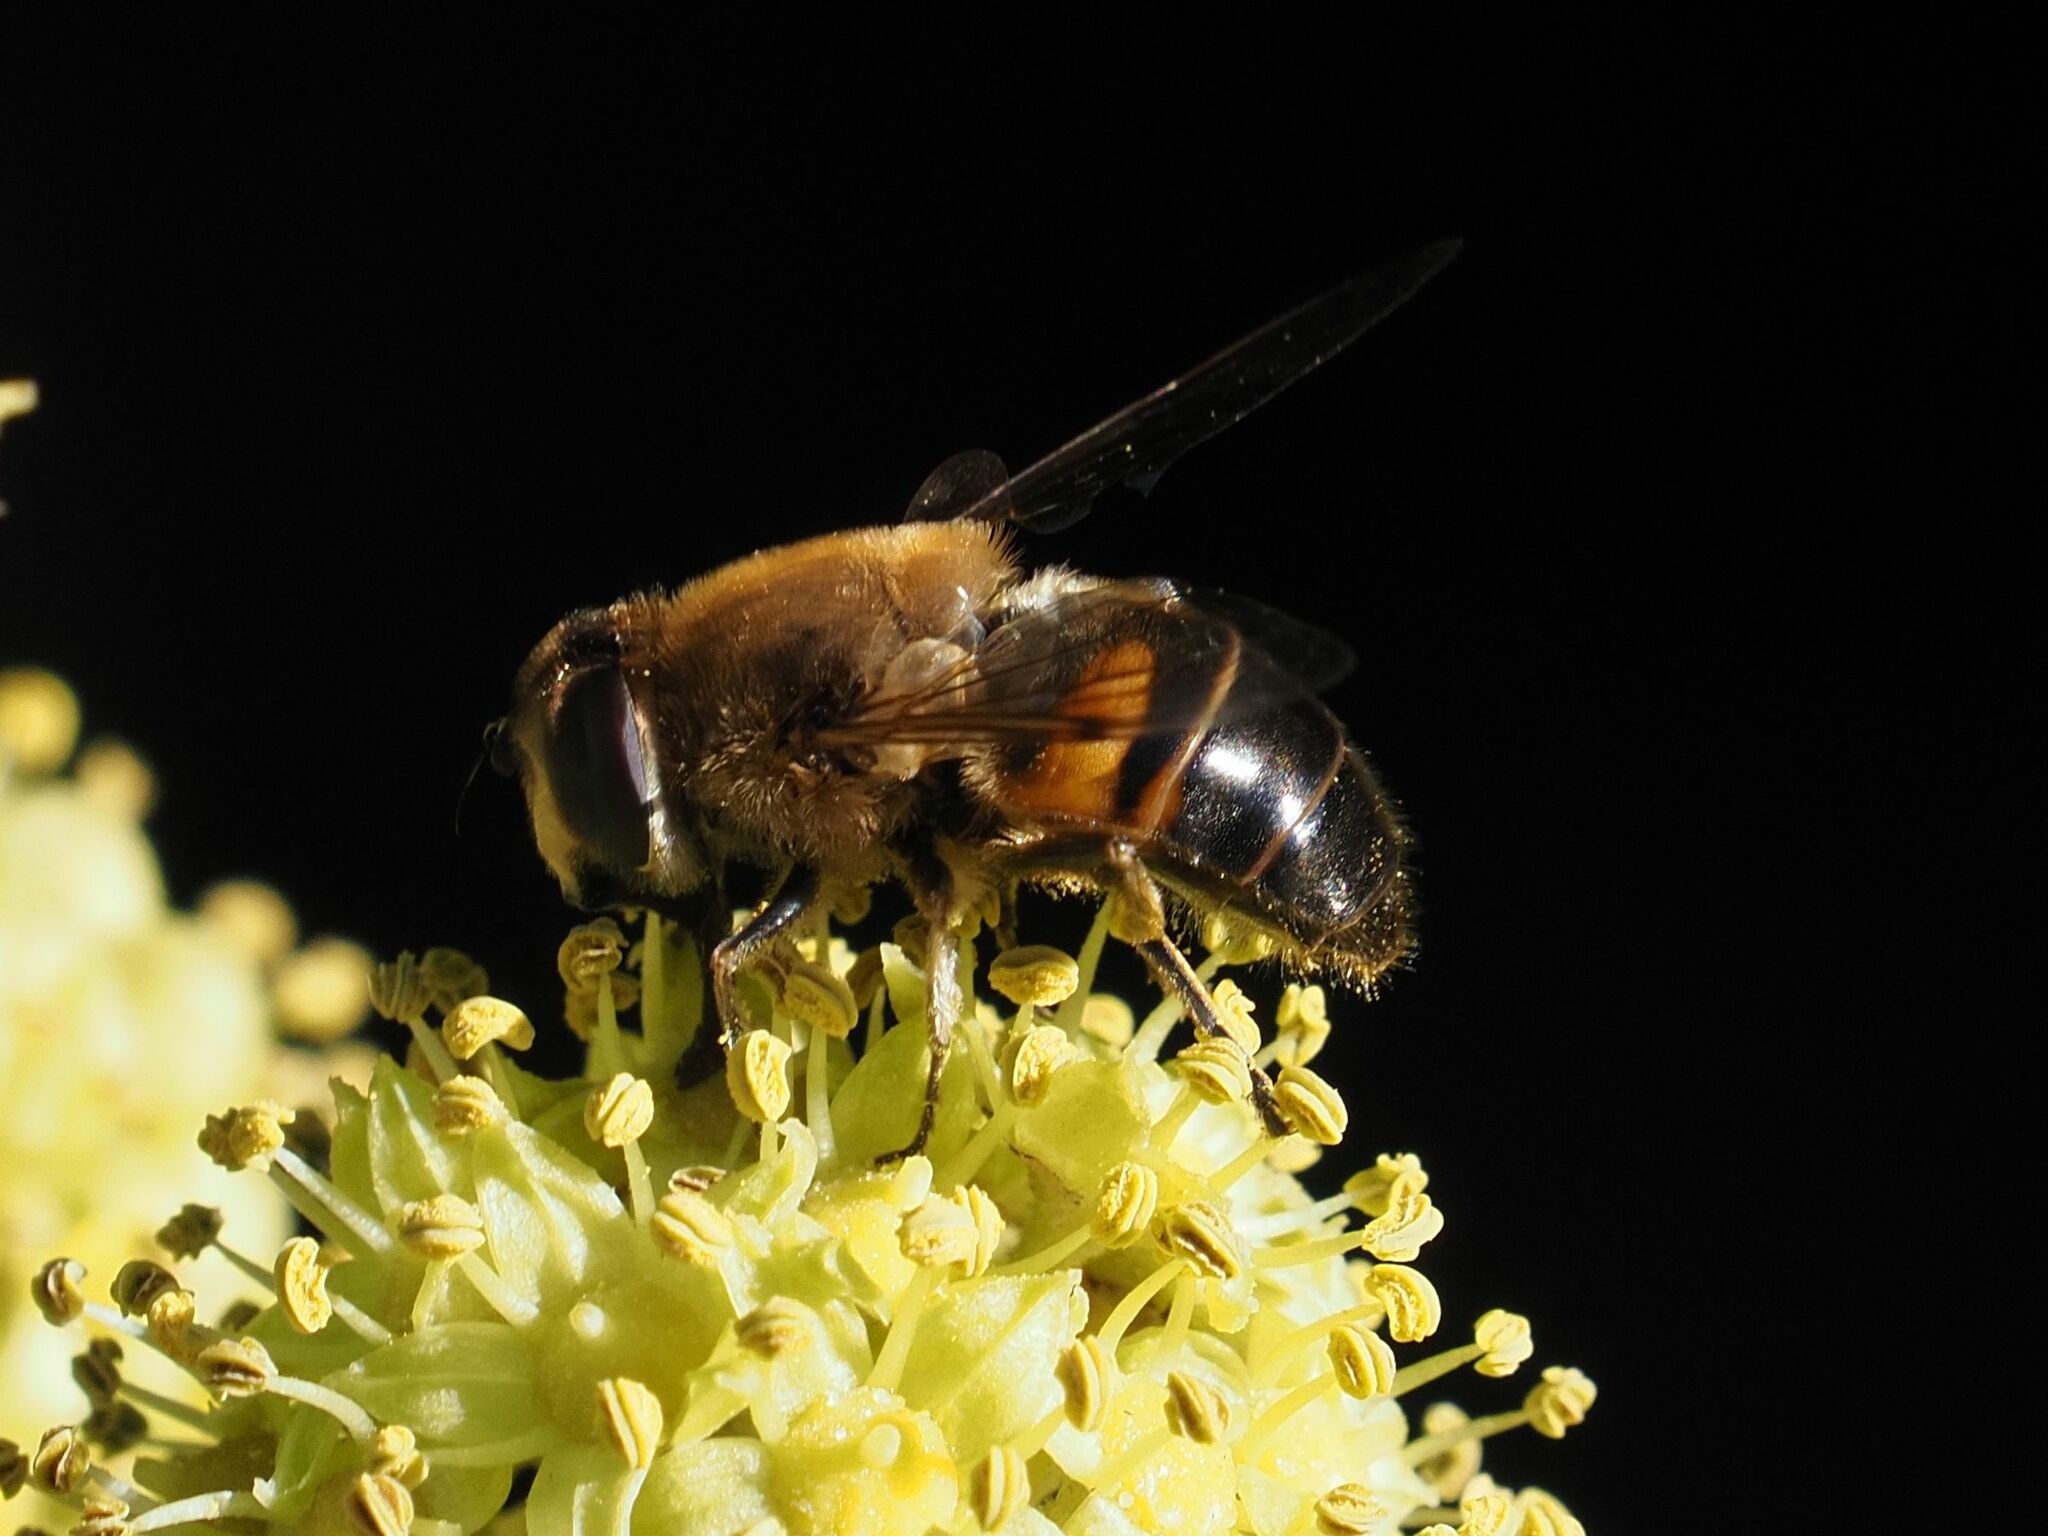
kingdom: Animalia
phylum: Arthropoda
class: Insecta
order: Diptera
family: Syrphidae
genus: Eristalis
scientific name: Eristalis tenax
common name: Drone fly
